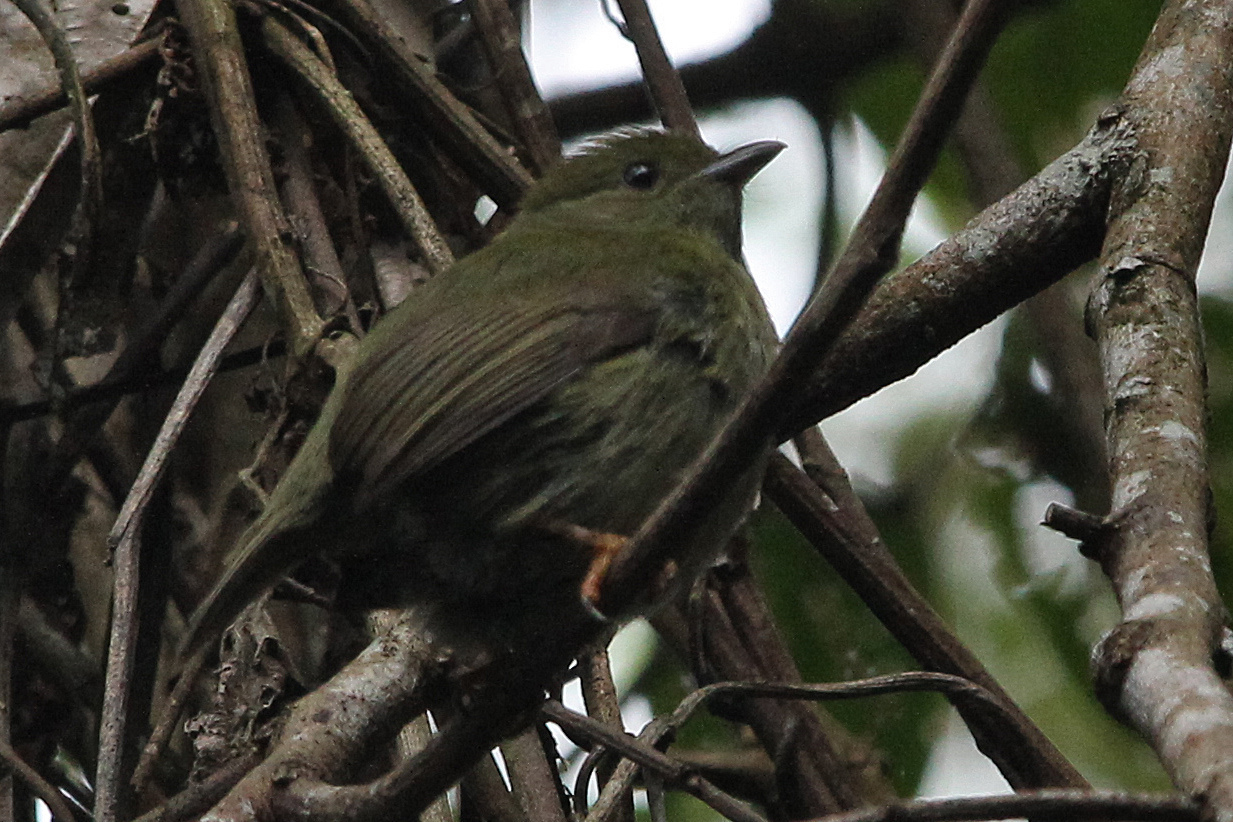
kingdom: Animalia
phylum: Chordata
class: Aves
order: Passeriformes
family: Pipridae
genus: Manacus
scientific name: Manacus manacus
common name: White-bearded manakin
